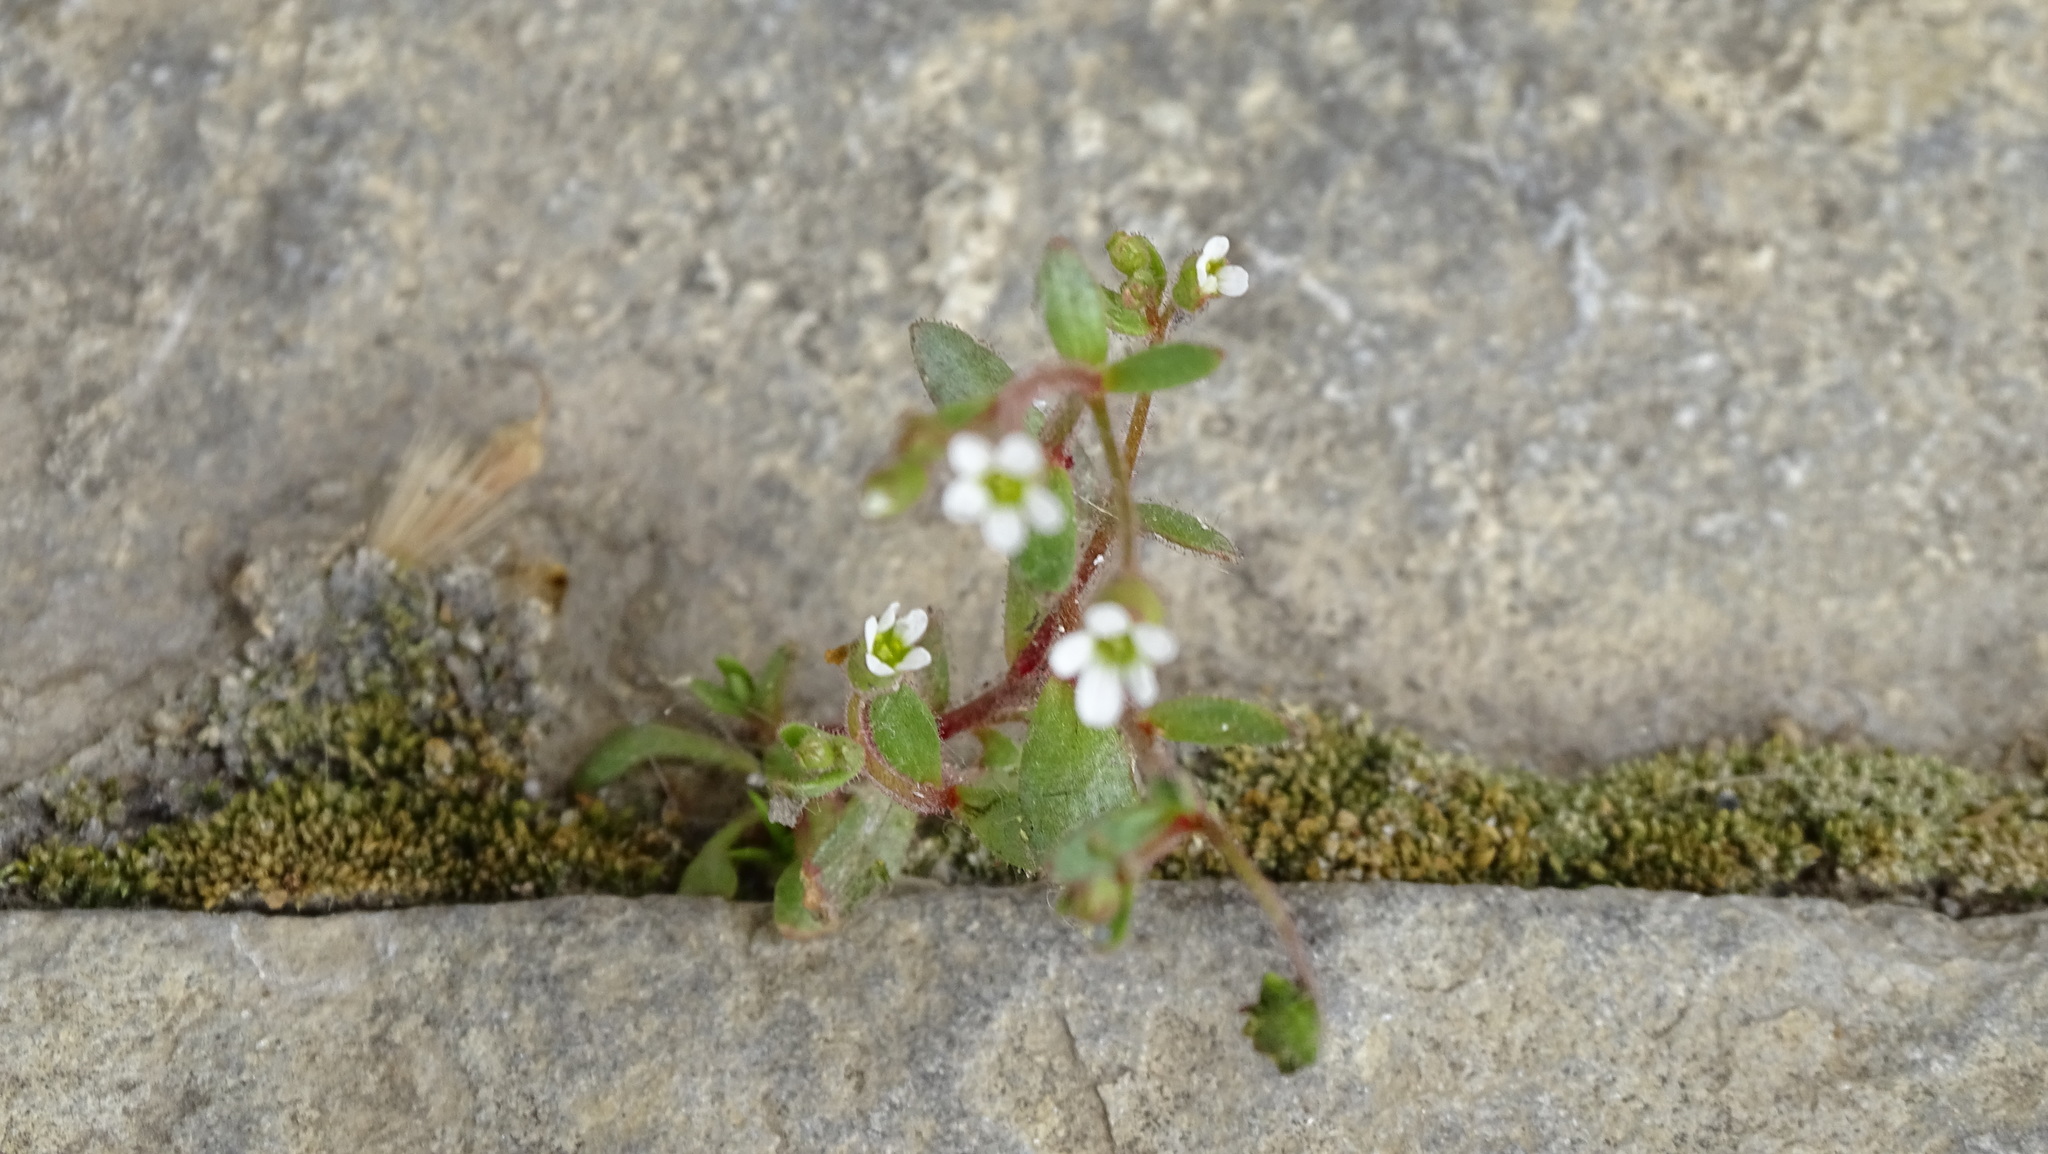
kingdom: Plantae
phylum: Tracheophyta
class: Magnoliopsida
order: Saxifragales
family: Saxifragaceae
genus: Saxifraga
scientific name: Saxifraga tridactylites
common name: Rue-leaved saxifrage
